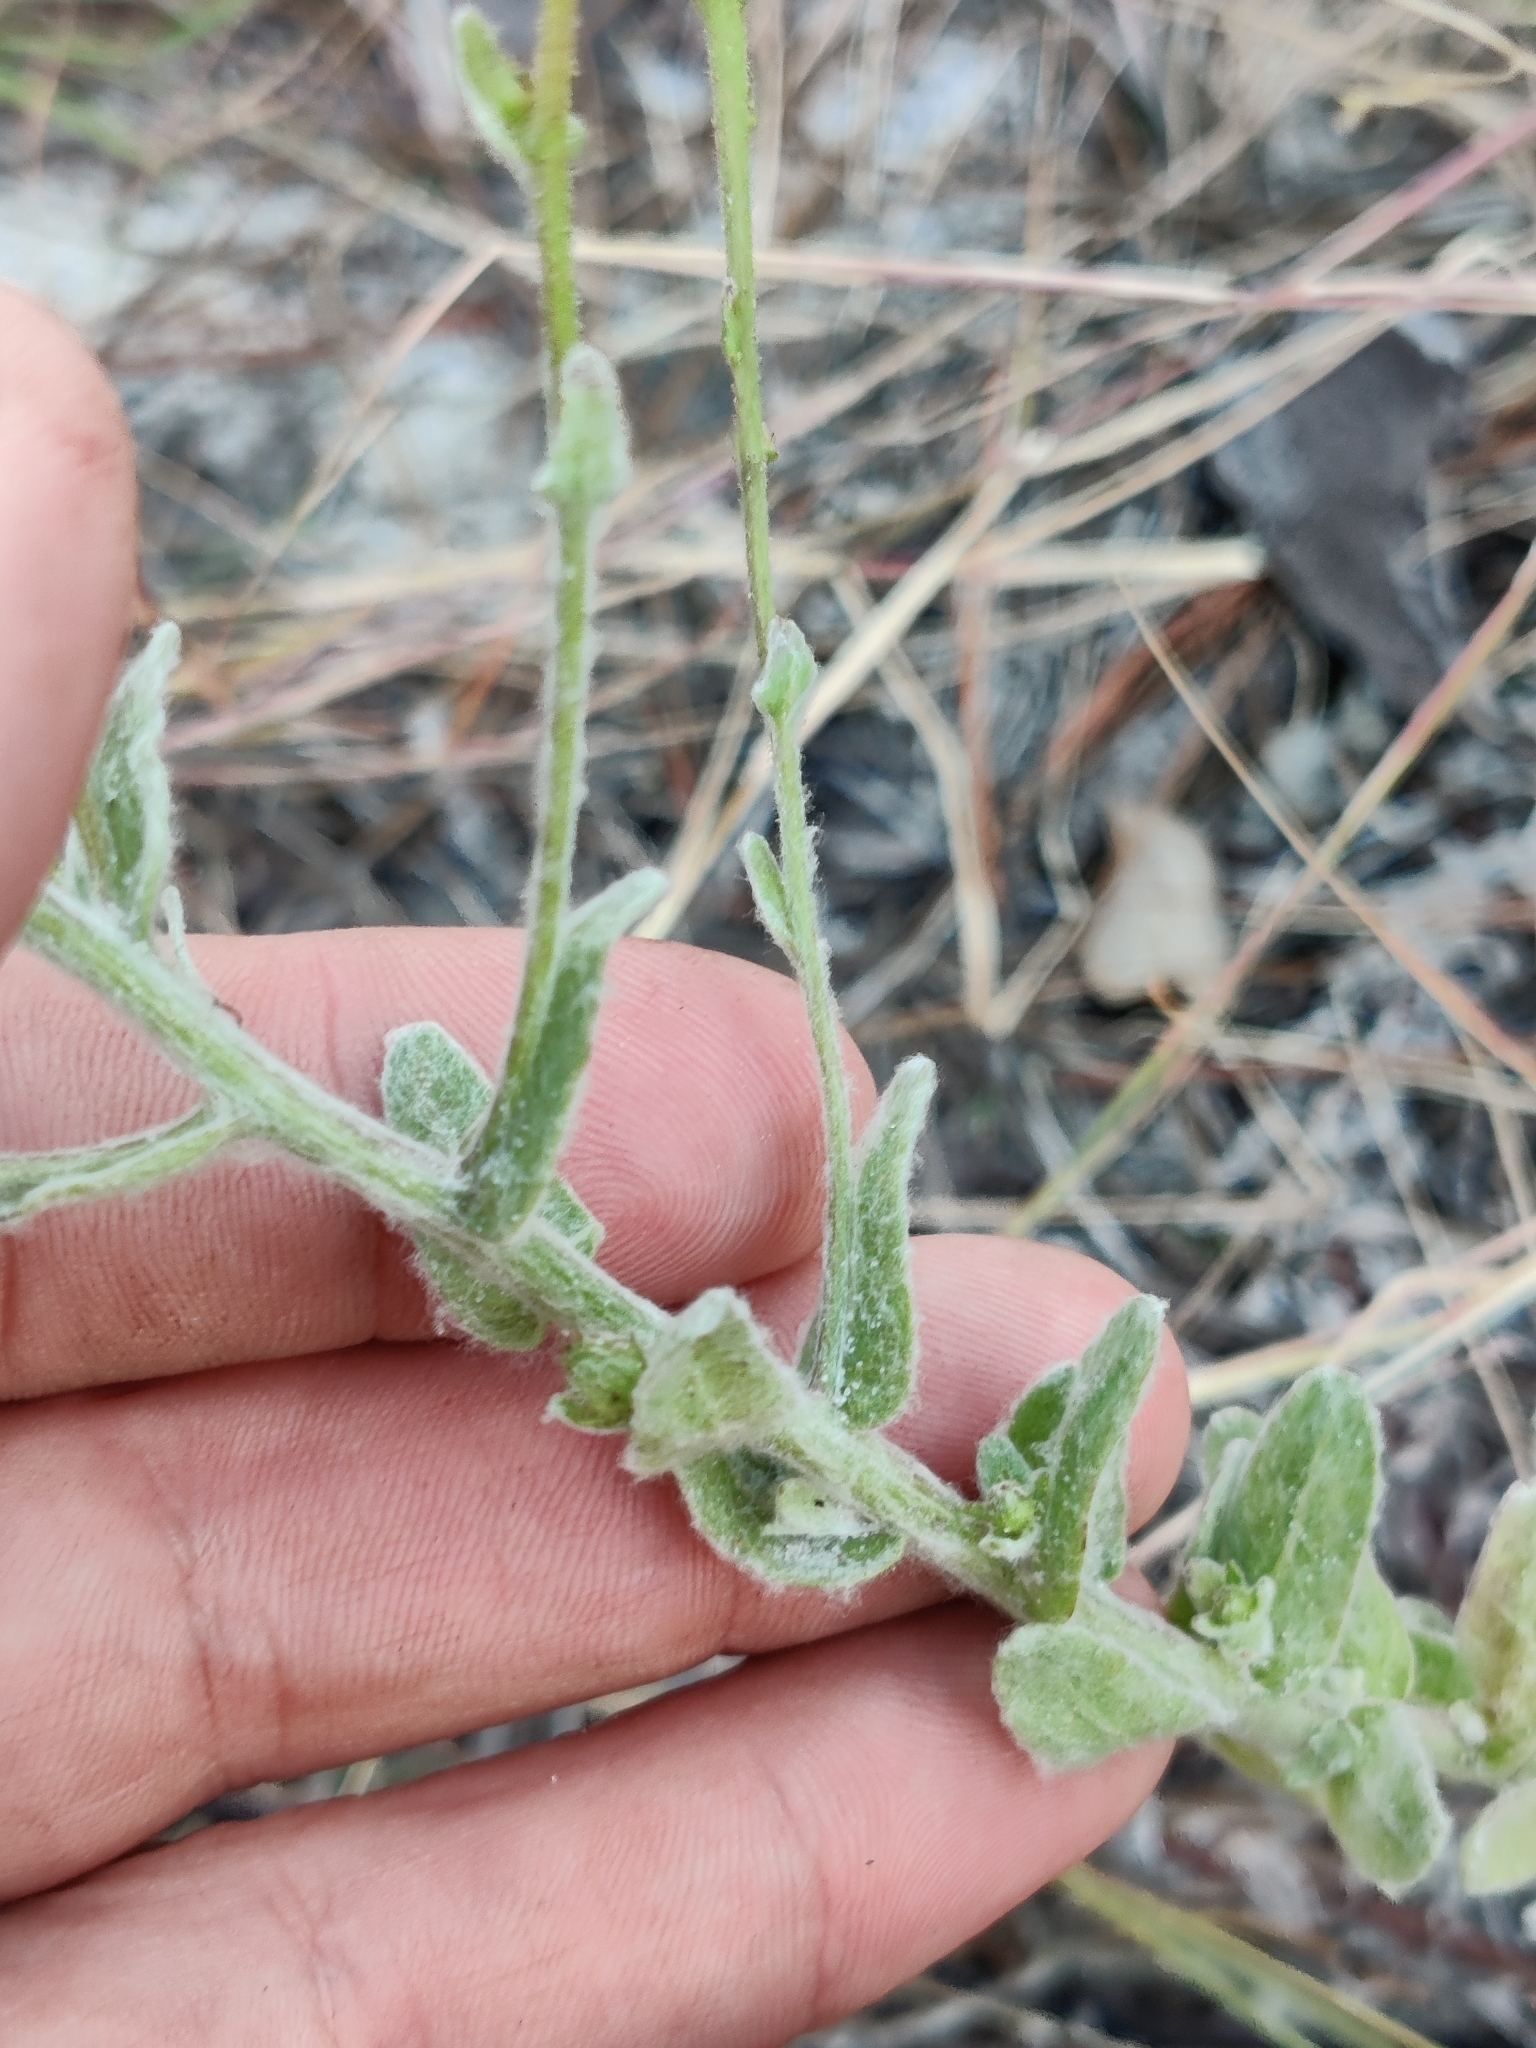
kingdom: Plantae
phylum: Tracheophyta
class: Magnoliopsida
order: Asterales
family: Asteraceae
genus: Chrysopsis
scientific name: Chrysopsis godfreyi
